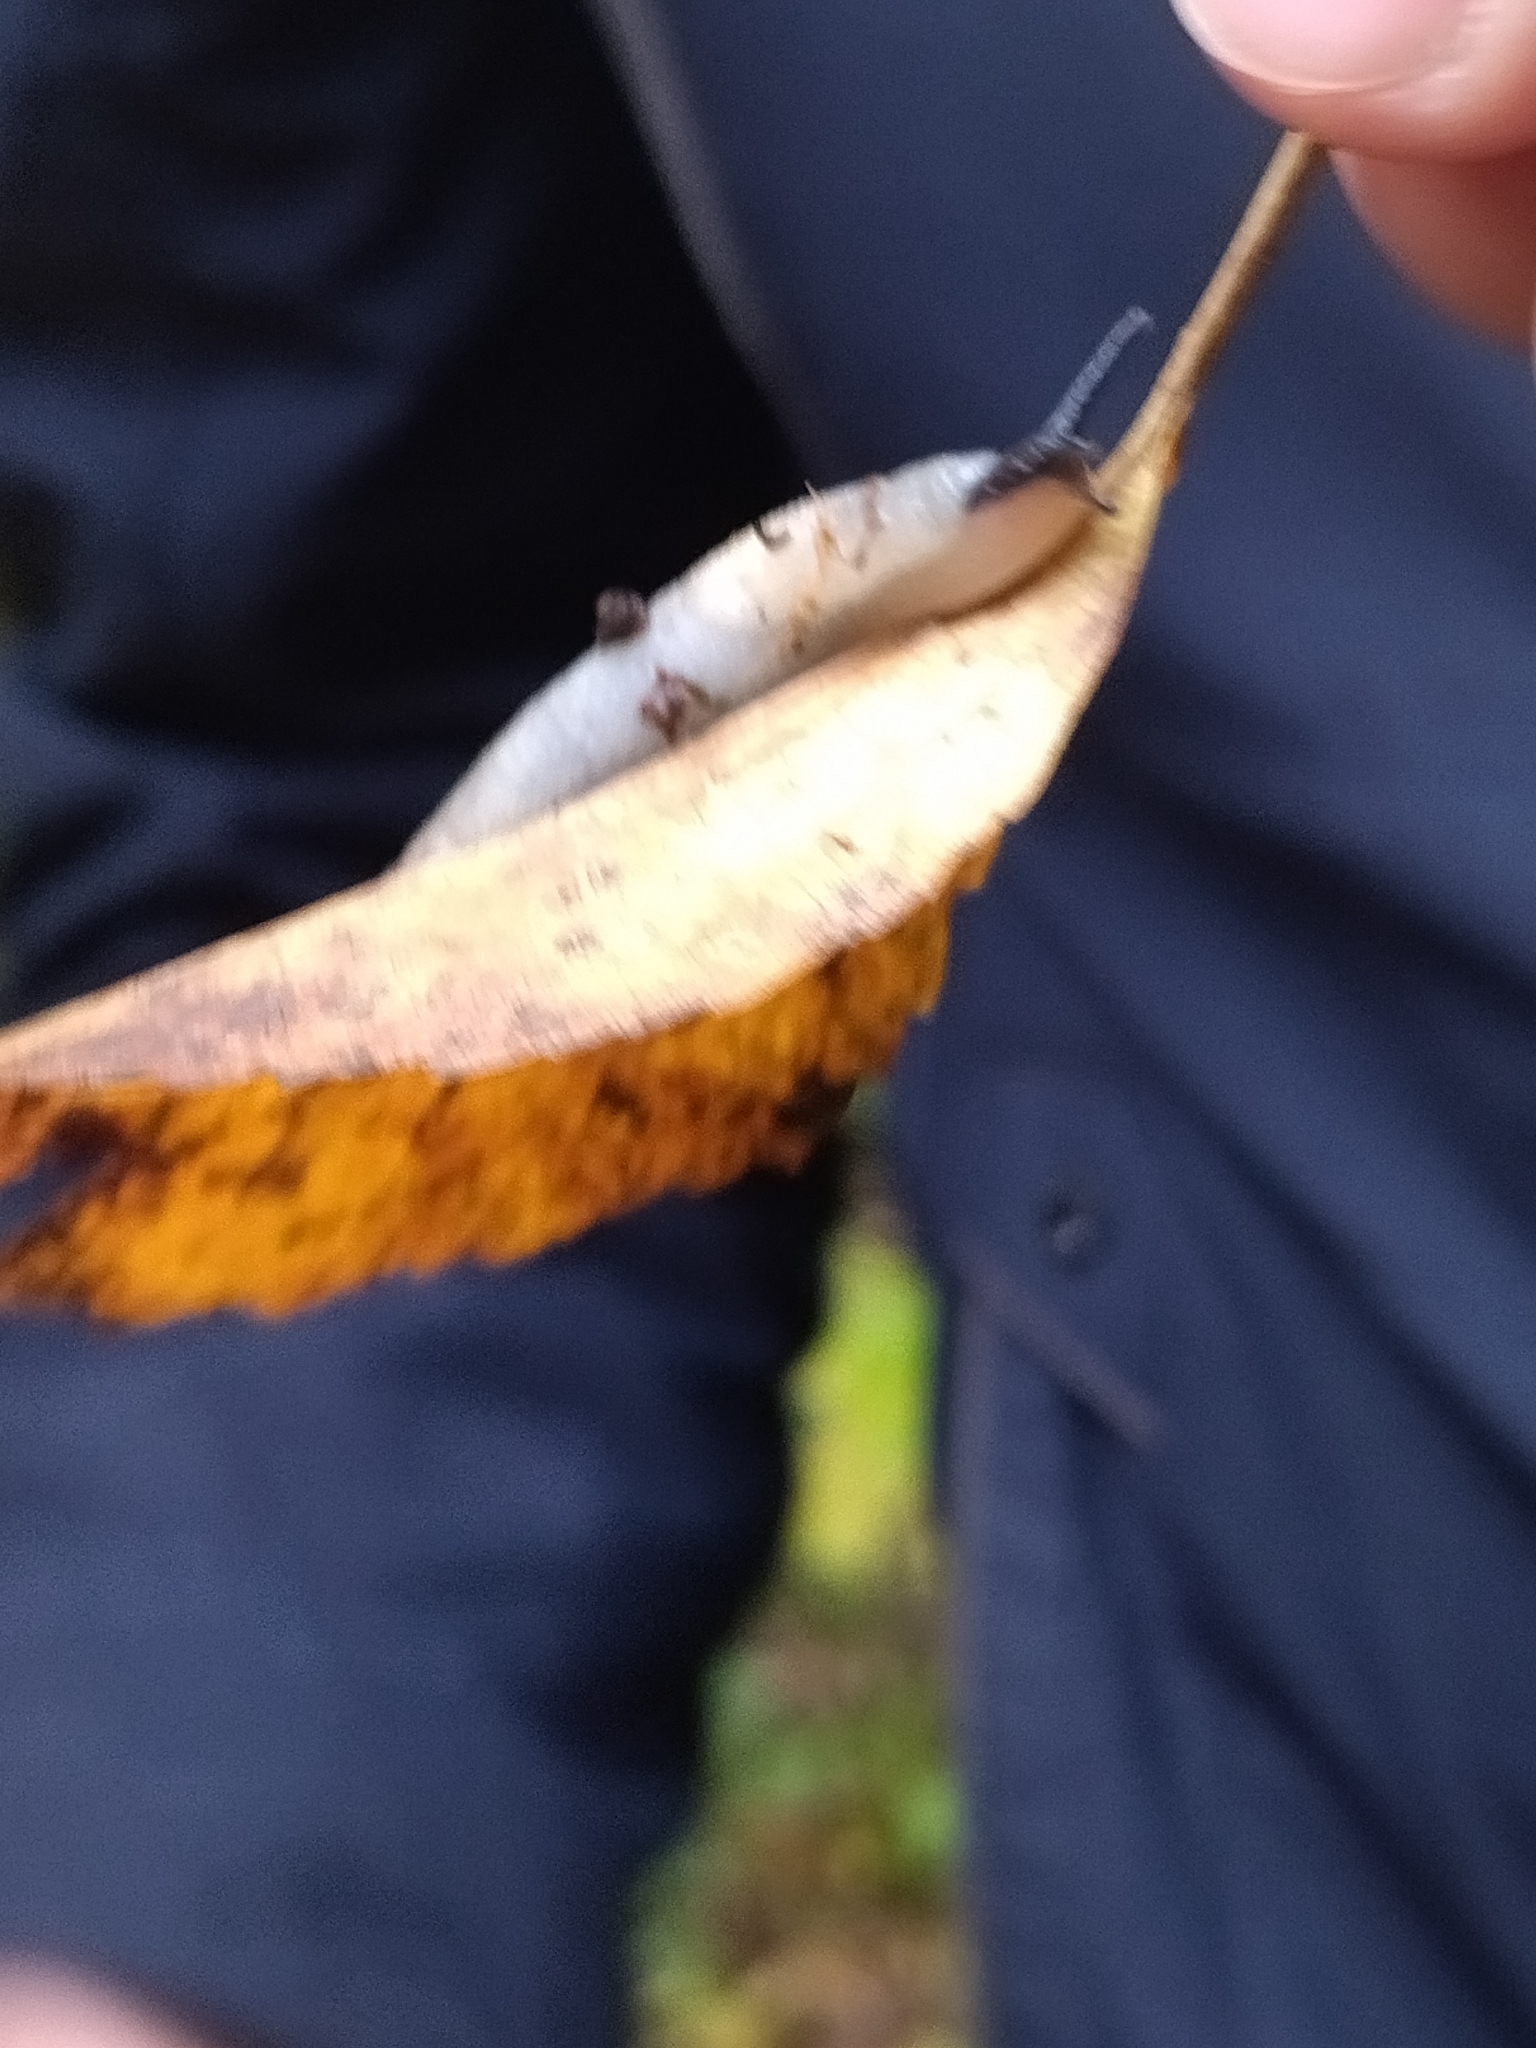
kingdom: Animalia
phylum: Mollusca
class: Gastropoda
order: Stylommatophora
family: Agriolimacidae
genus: Krynickillus
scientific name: Krynickillus melanocephalus
